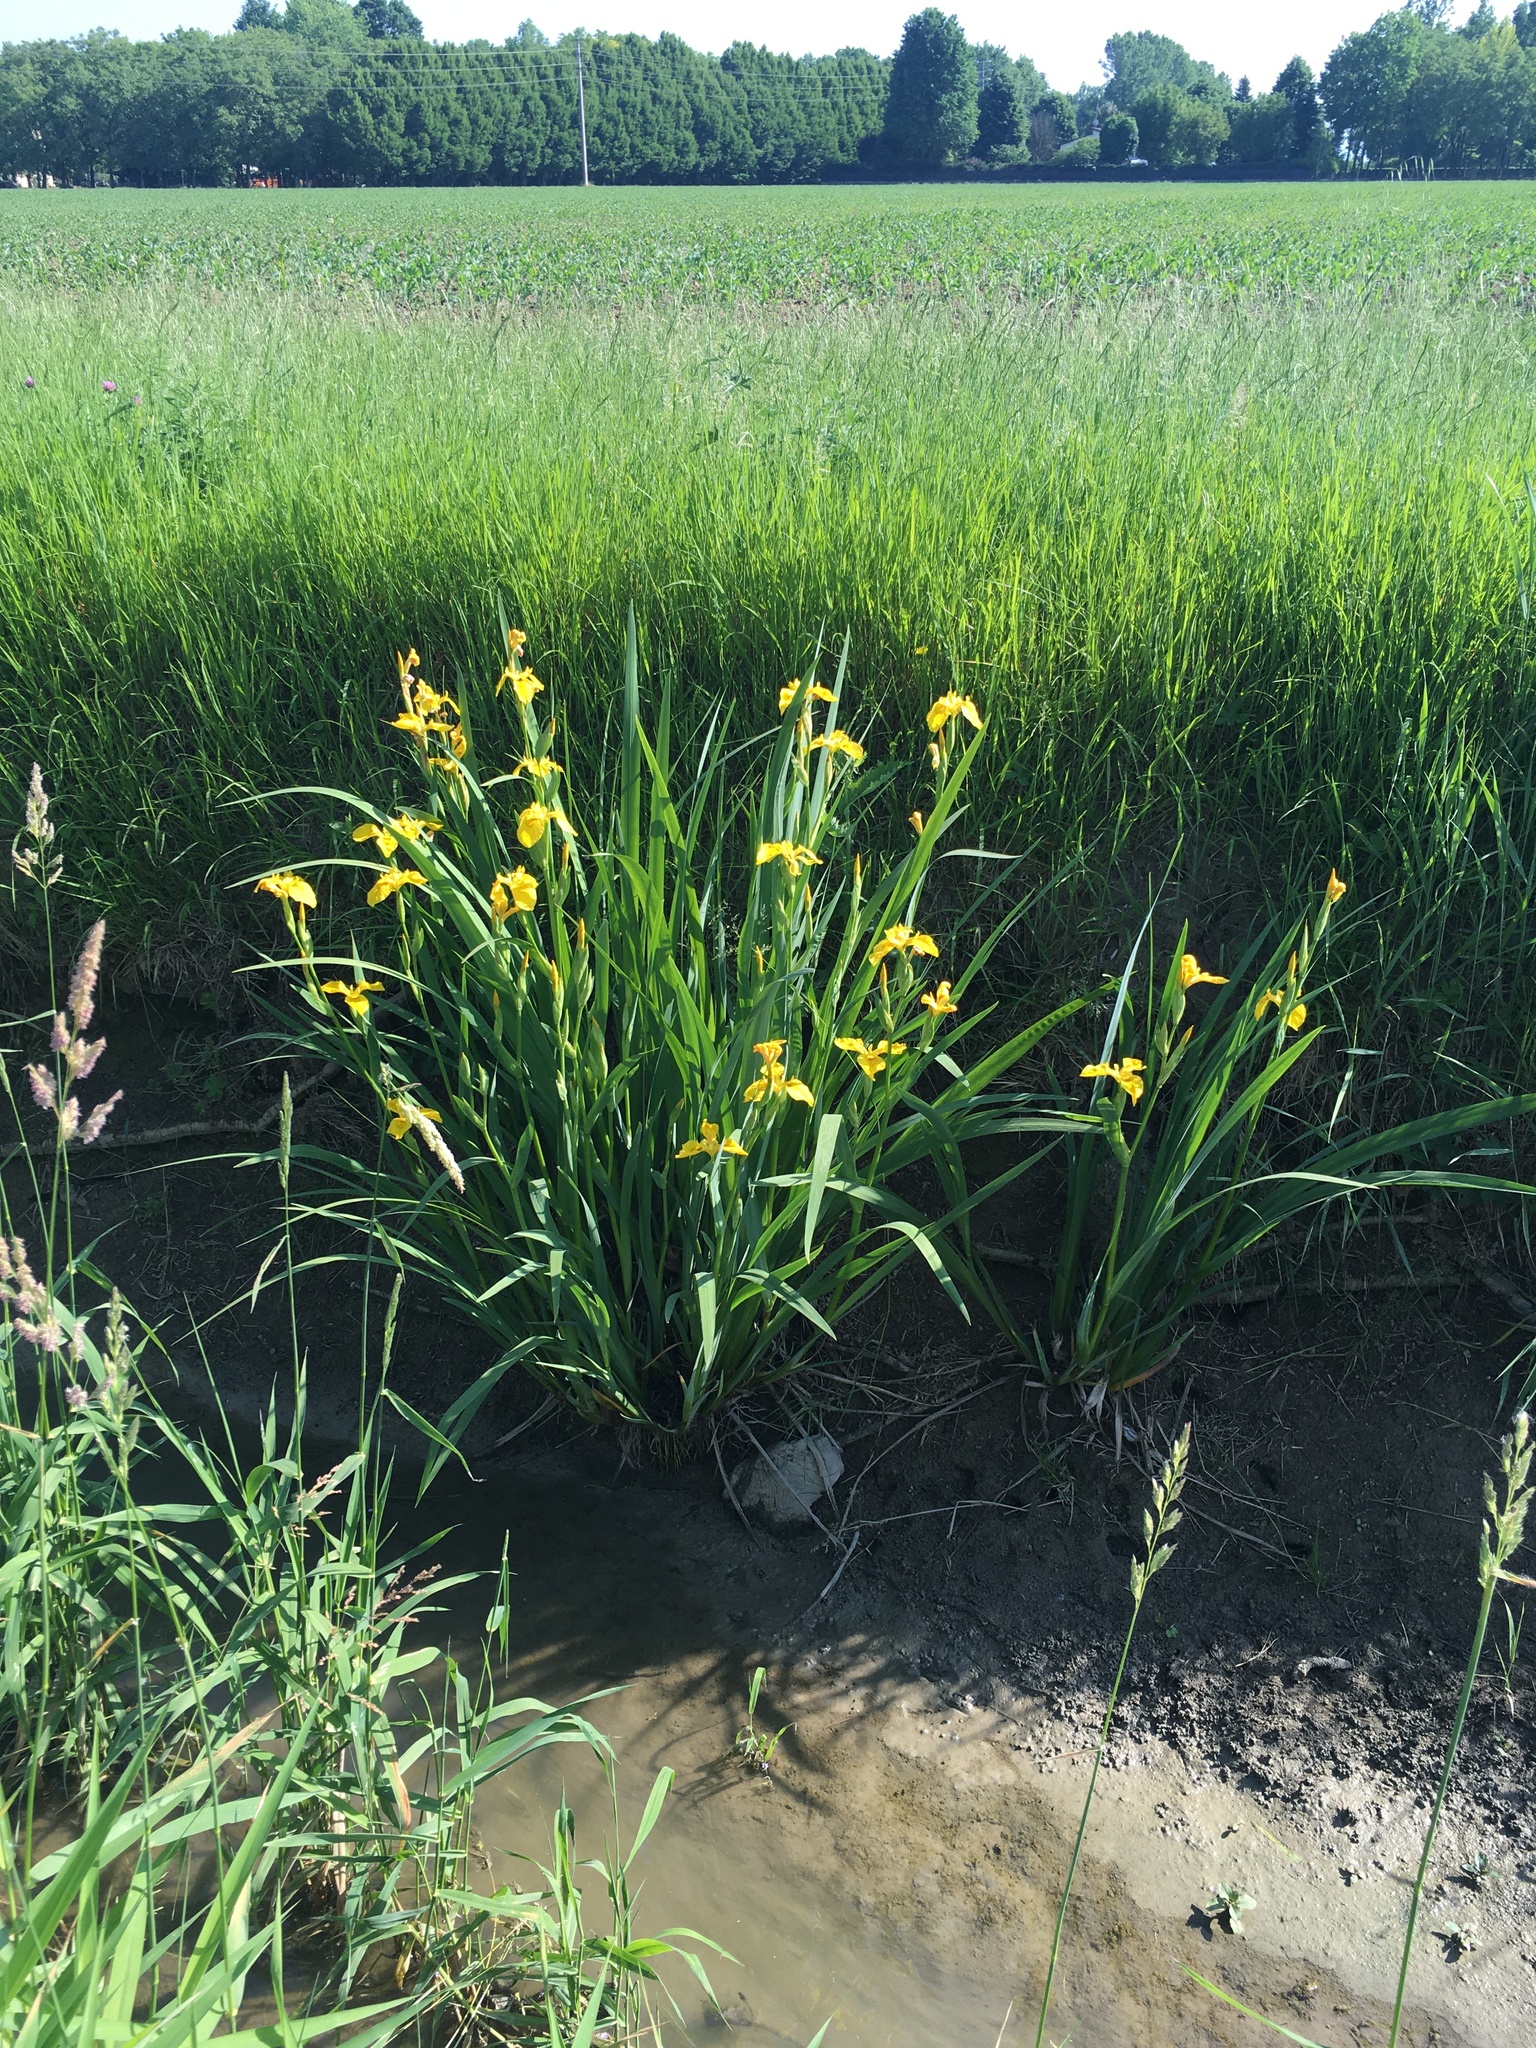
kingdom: Plantae
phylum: Tracheophyta
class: Liliopsida
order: Asparagales
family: Iridaceae
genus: Iris
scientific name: Iris pseudacorus
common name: Yellow flag
